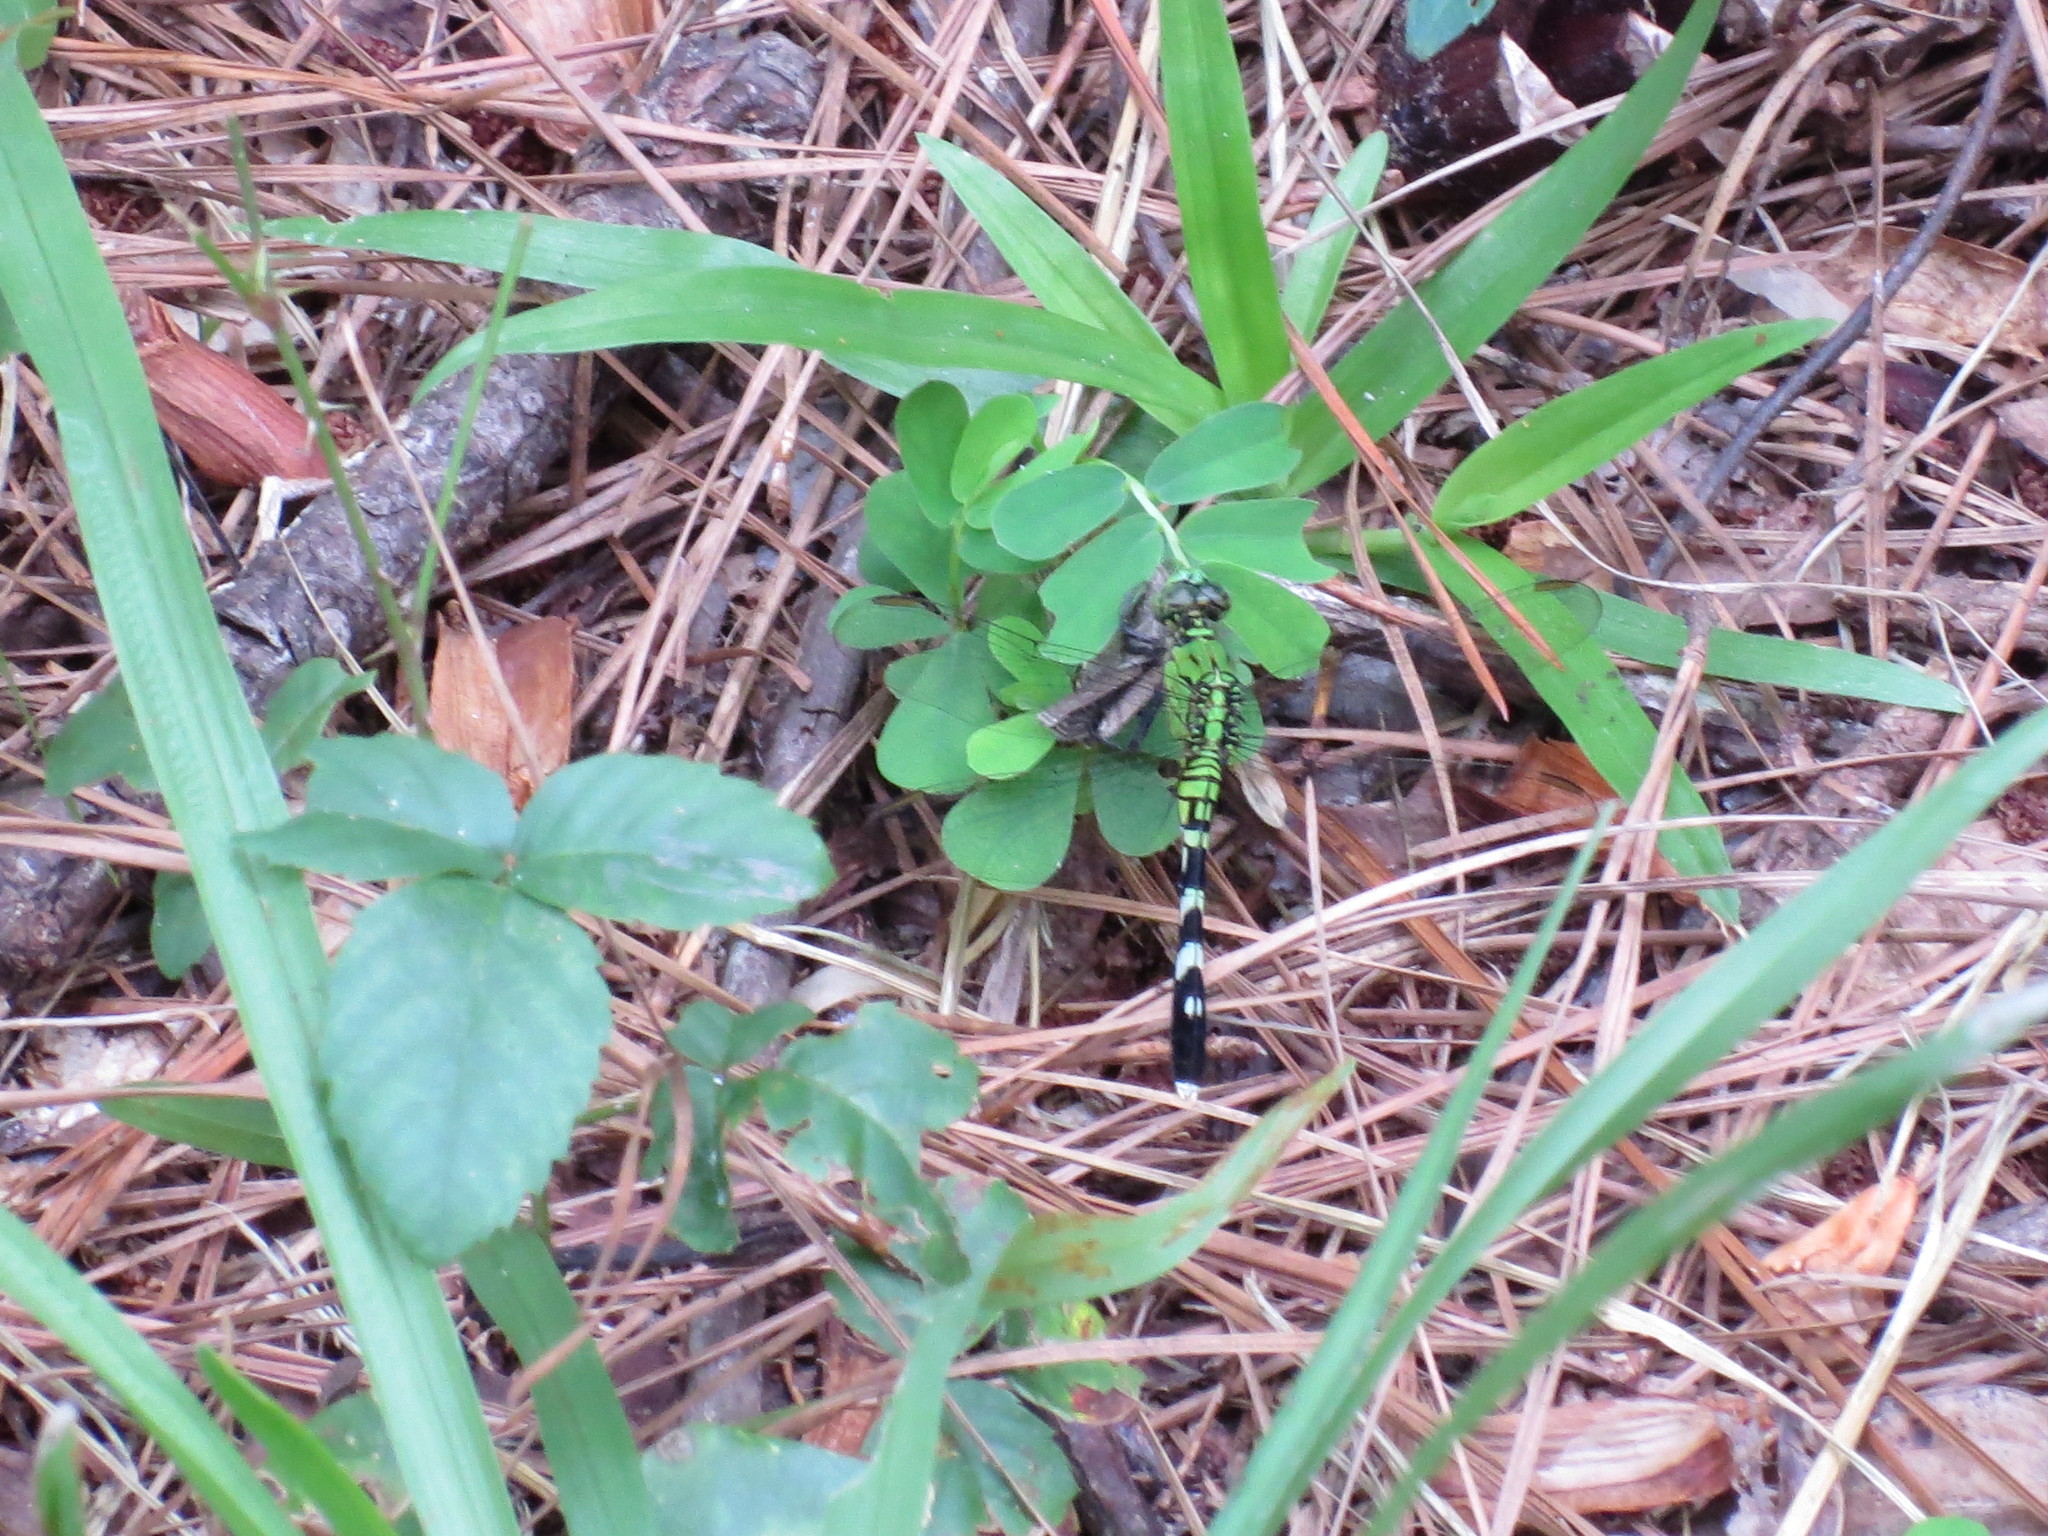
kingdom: Animalia
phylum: Arthropoda
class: Insecta
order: Odonata
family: Libellulidae
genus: Erythemis
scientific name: Erythemis simplicicollis
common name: Eastern pondhawk
